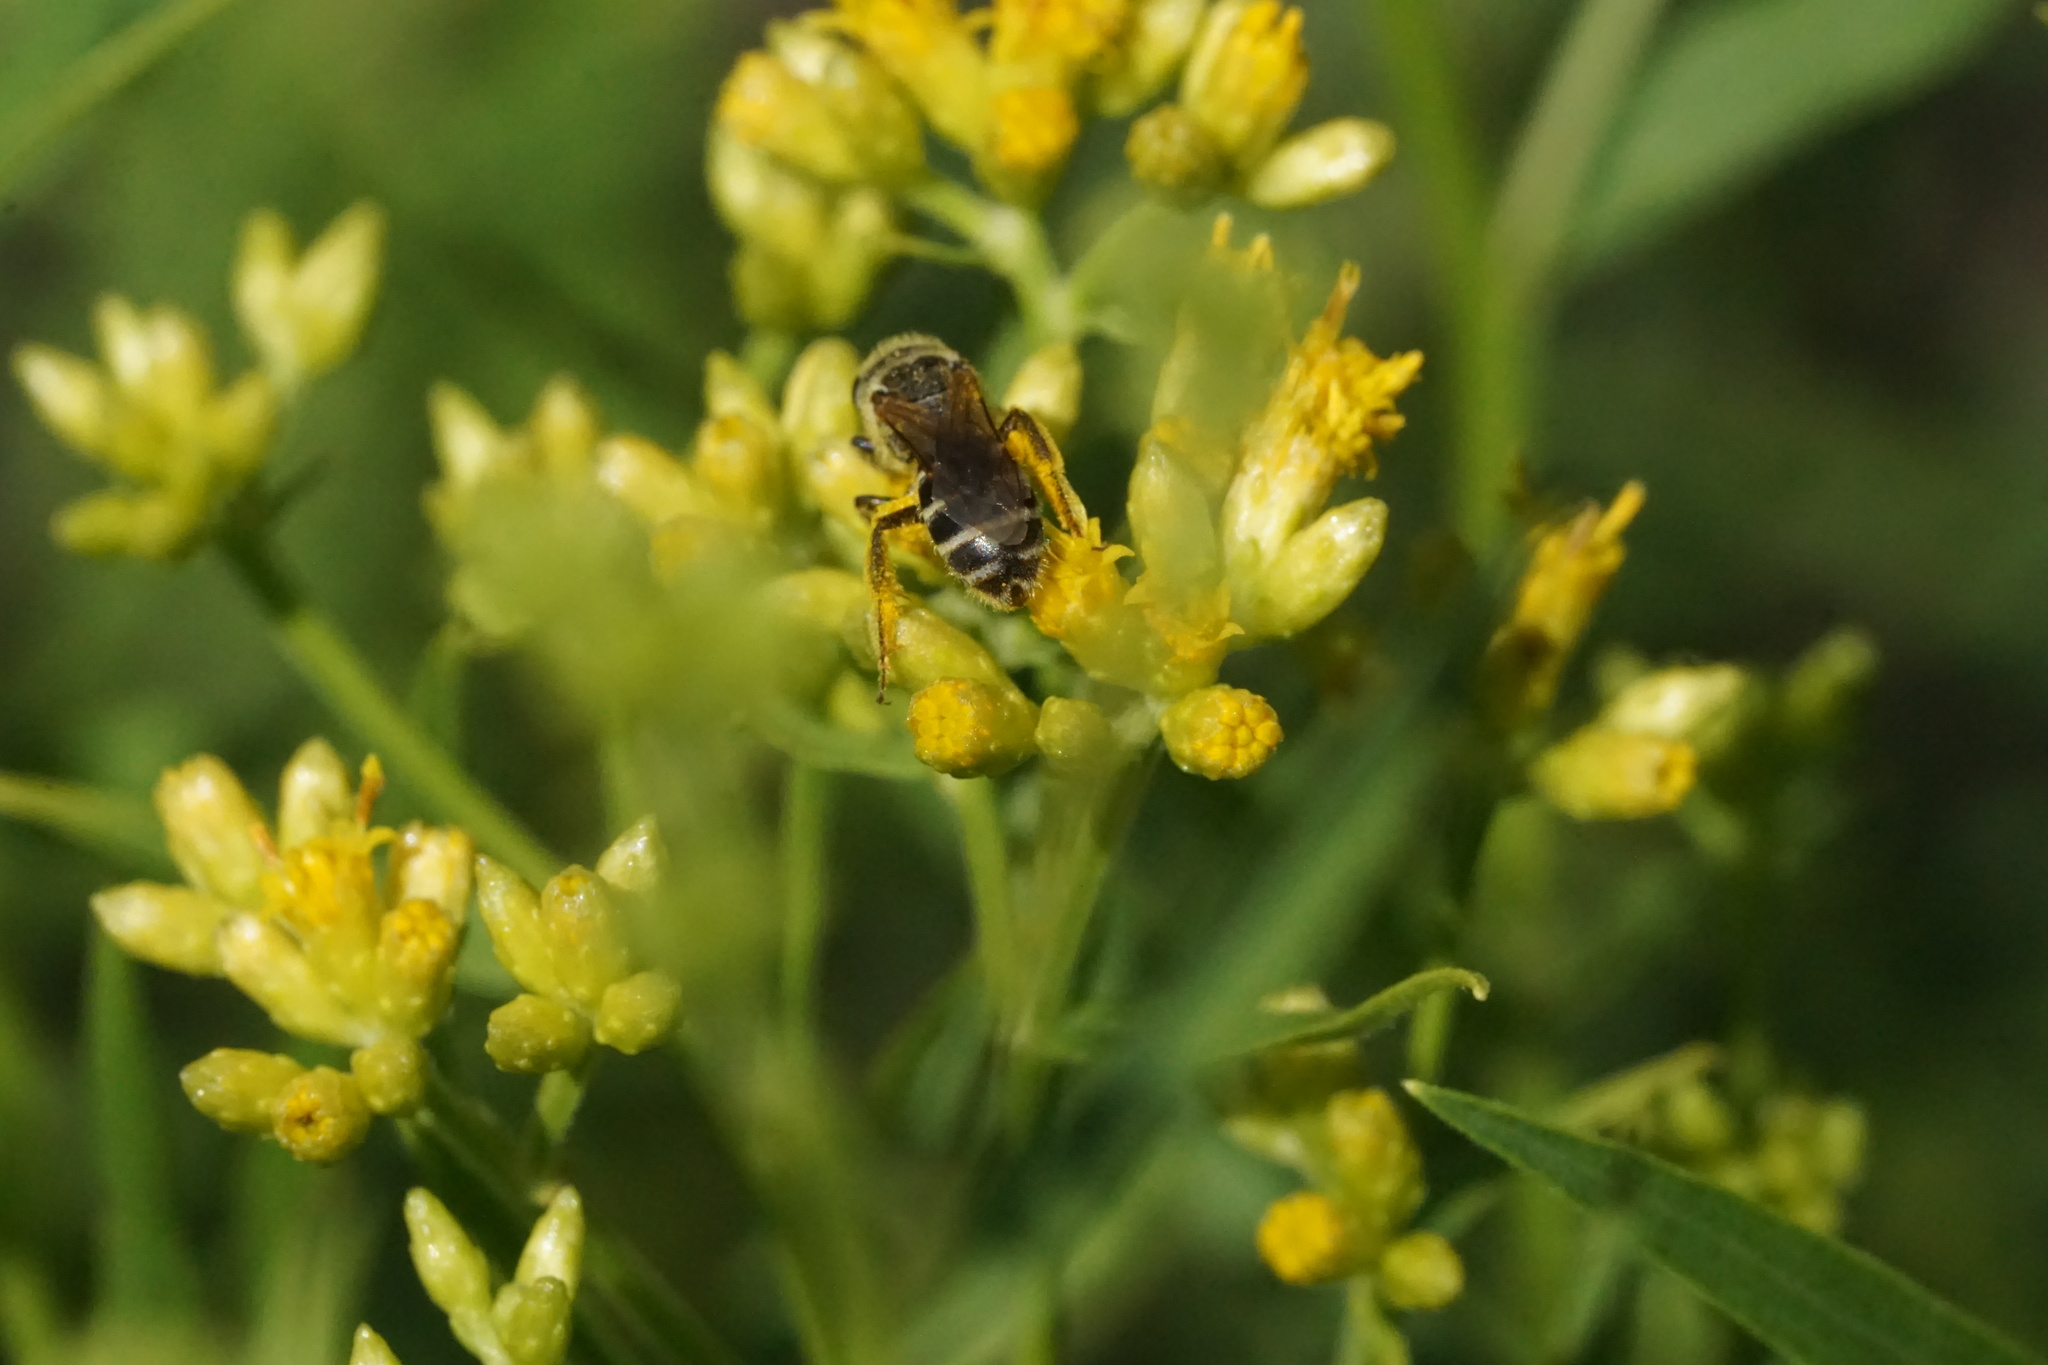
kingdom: Animalia
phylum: Arthropoda
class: Insecta
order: Hymenoptera
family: Halictidae
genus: Halictus
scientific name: Halictus ligatus
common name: Ligated furrow bee
